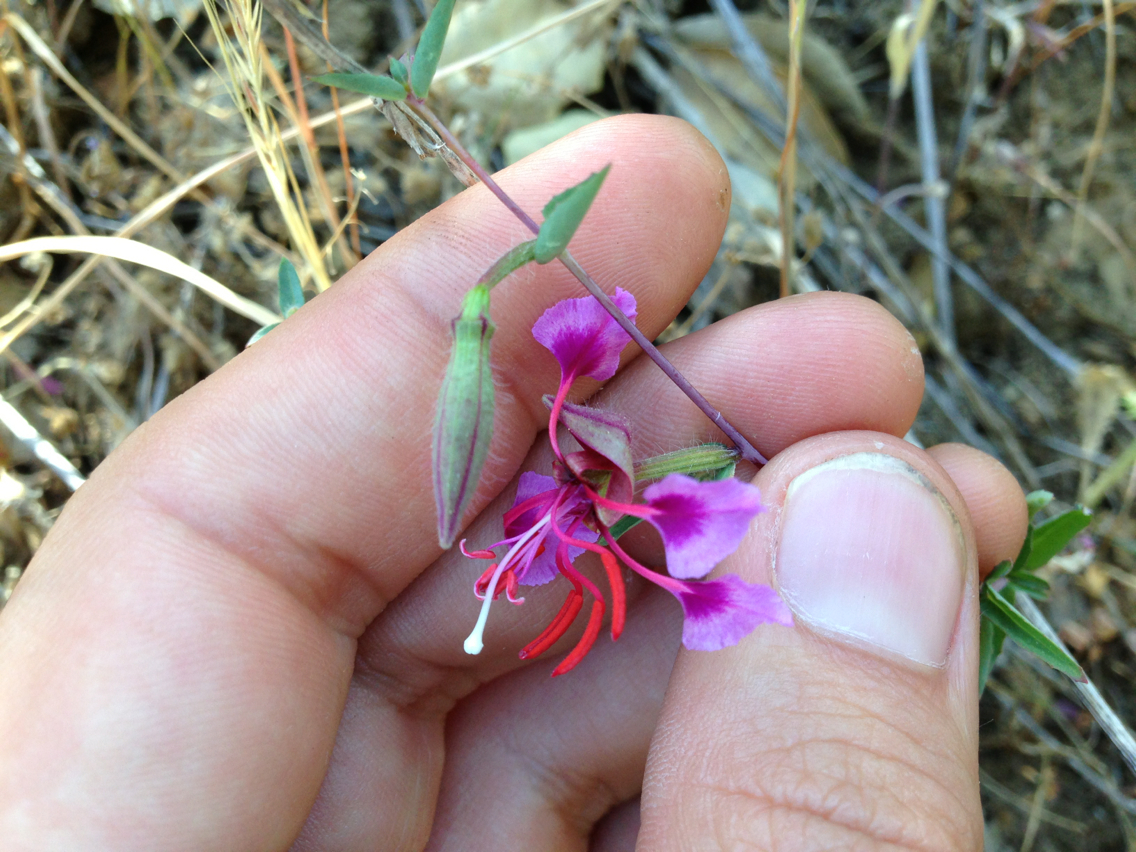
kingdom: Plantae
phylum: Tracheophyta
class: Magnoliopsida
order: Myrtales
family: Onagraceae
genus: Clarkia
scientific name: Clarkia unguiculata
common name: Clarkia
